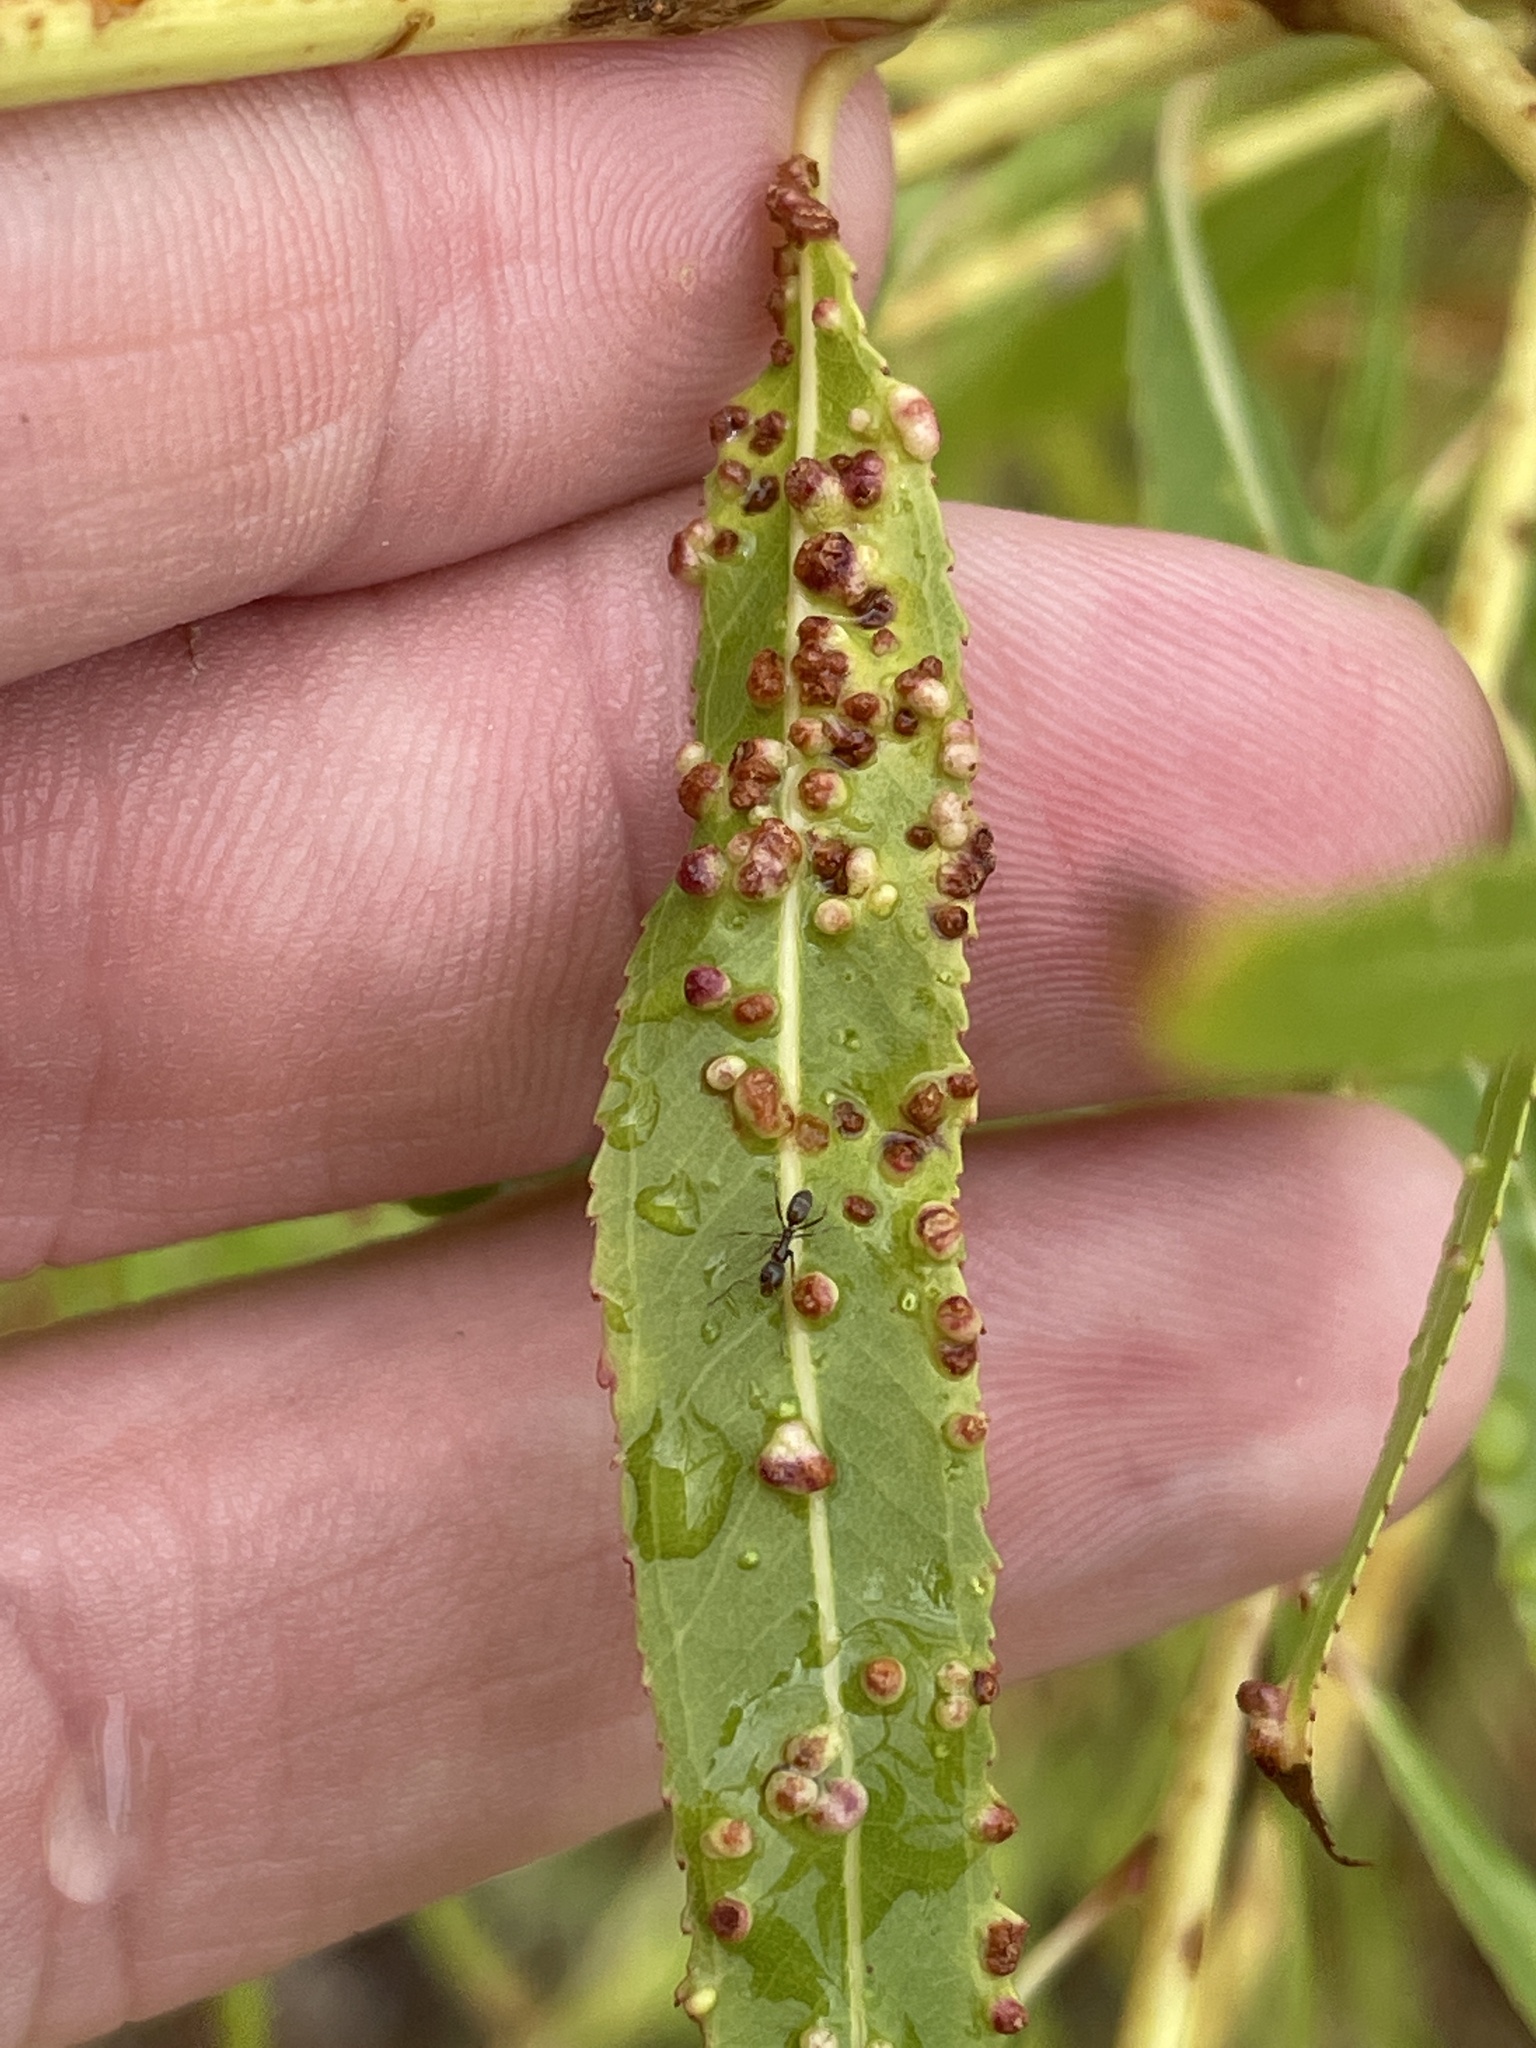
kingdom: Animalia
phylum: Arthropoda
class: Arachnida
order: Trombidiformes
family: Eriophyidae
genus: Aculus
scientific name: Aculus tetanothrix
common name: Willow bead gall mite
